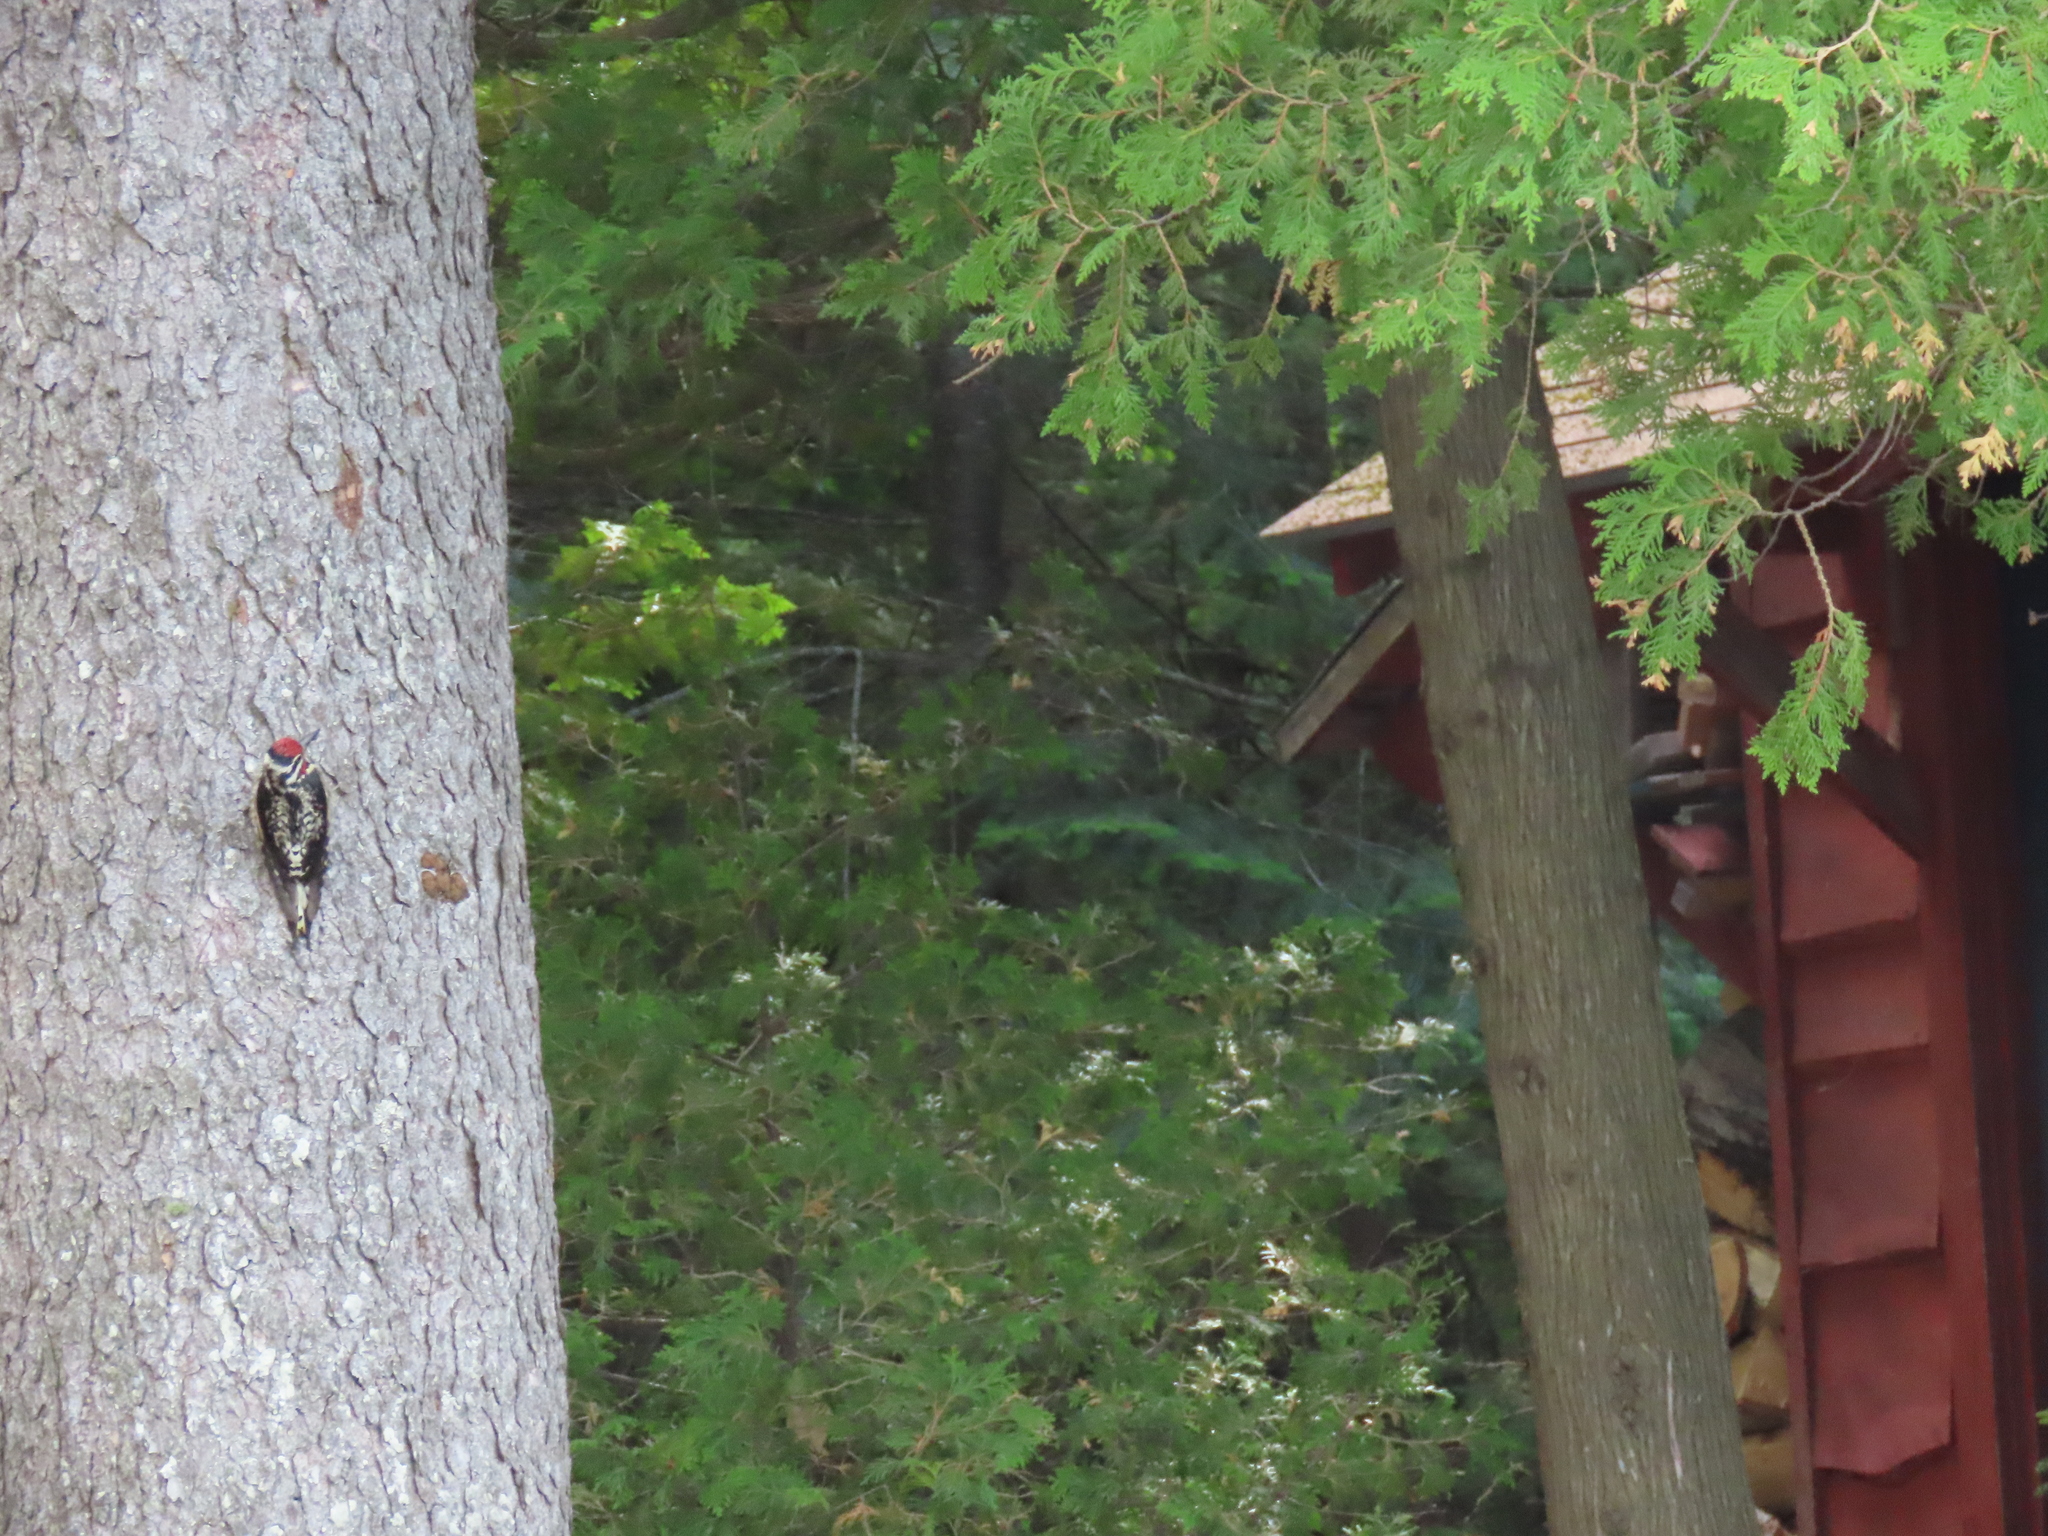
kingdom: Animalia
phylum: Chordata
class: Aves
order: Piciformes
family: Picidae
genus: Sphyrapicus
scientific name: Sphyrapicus varius
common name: Yellow-bellied sapsucker
